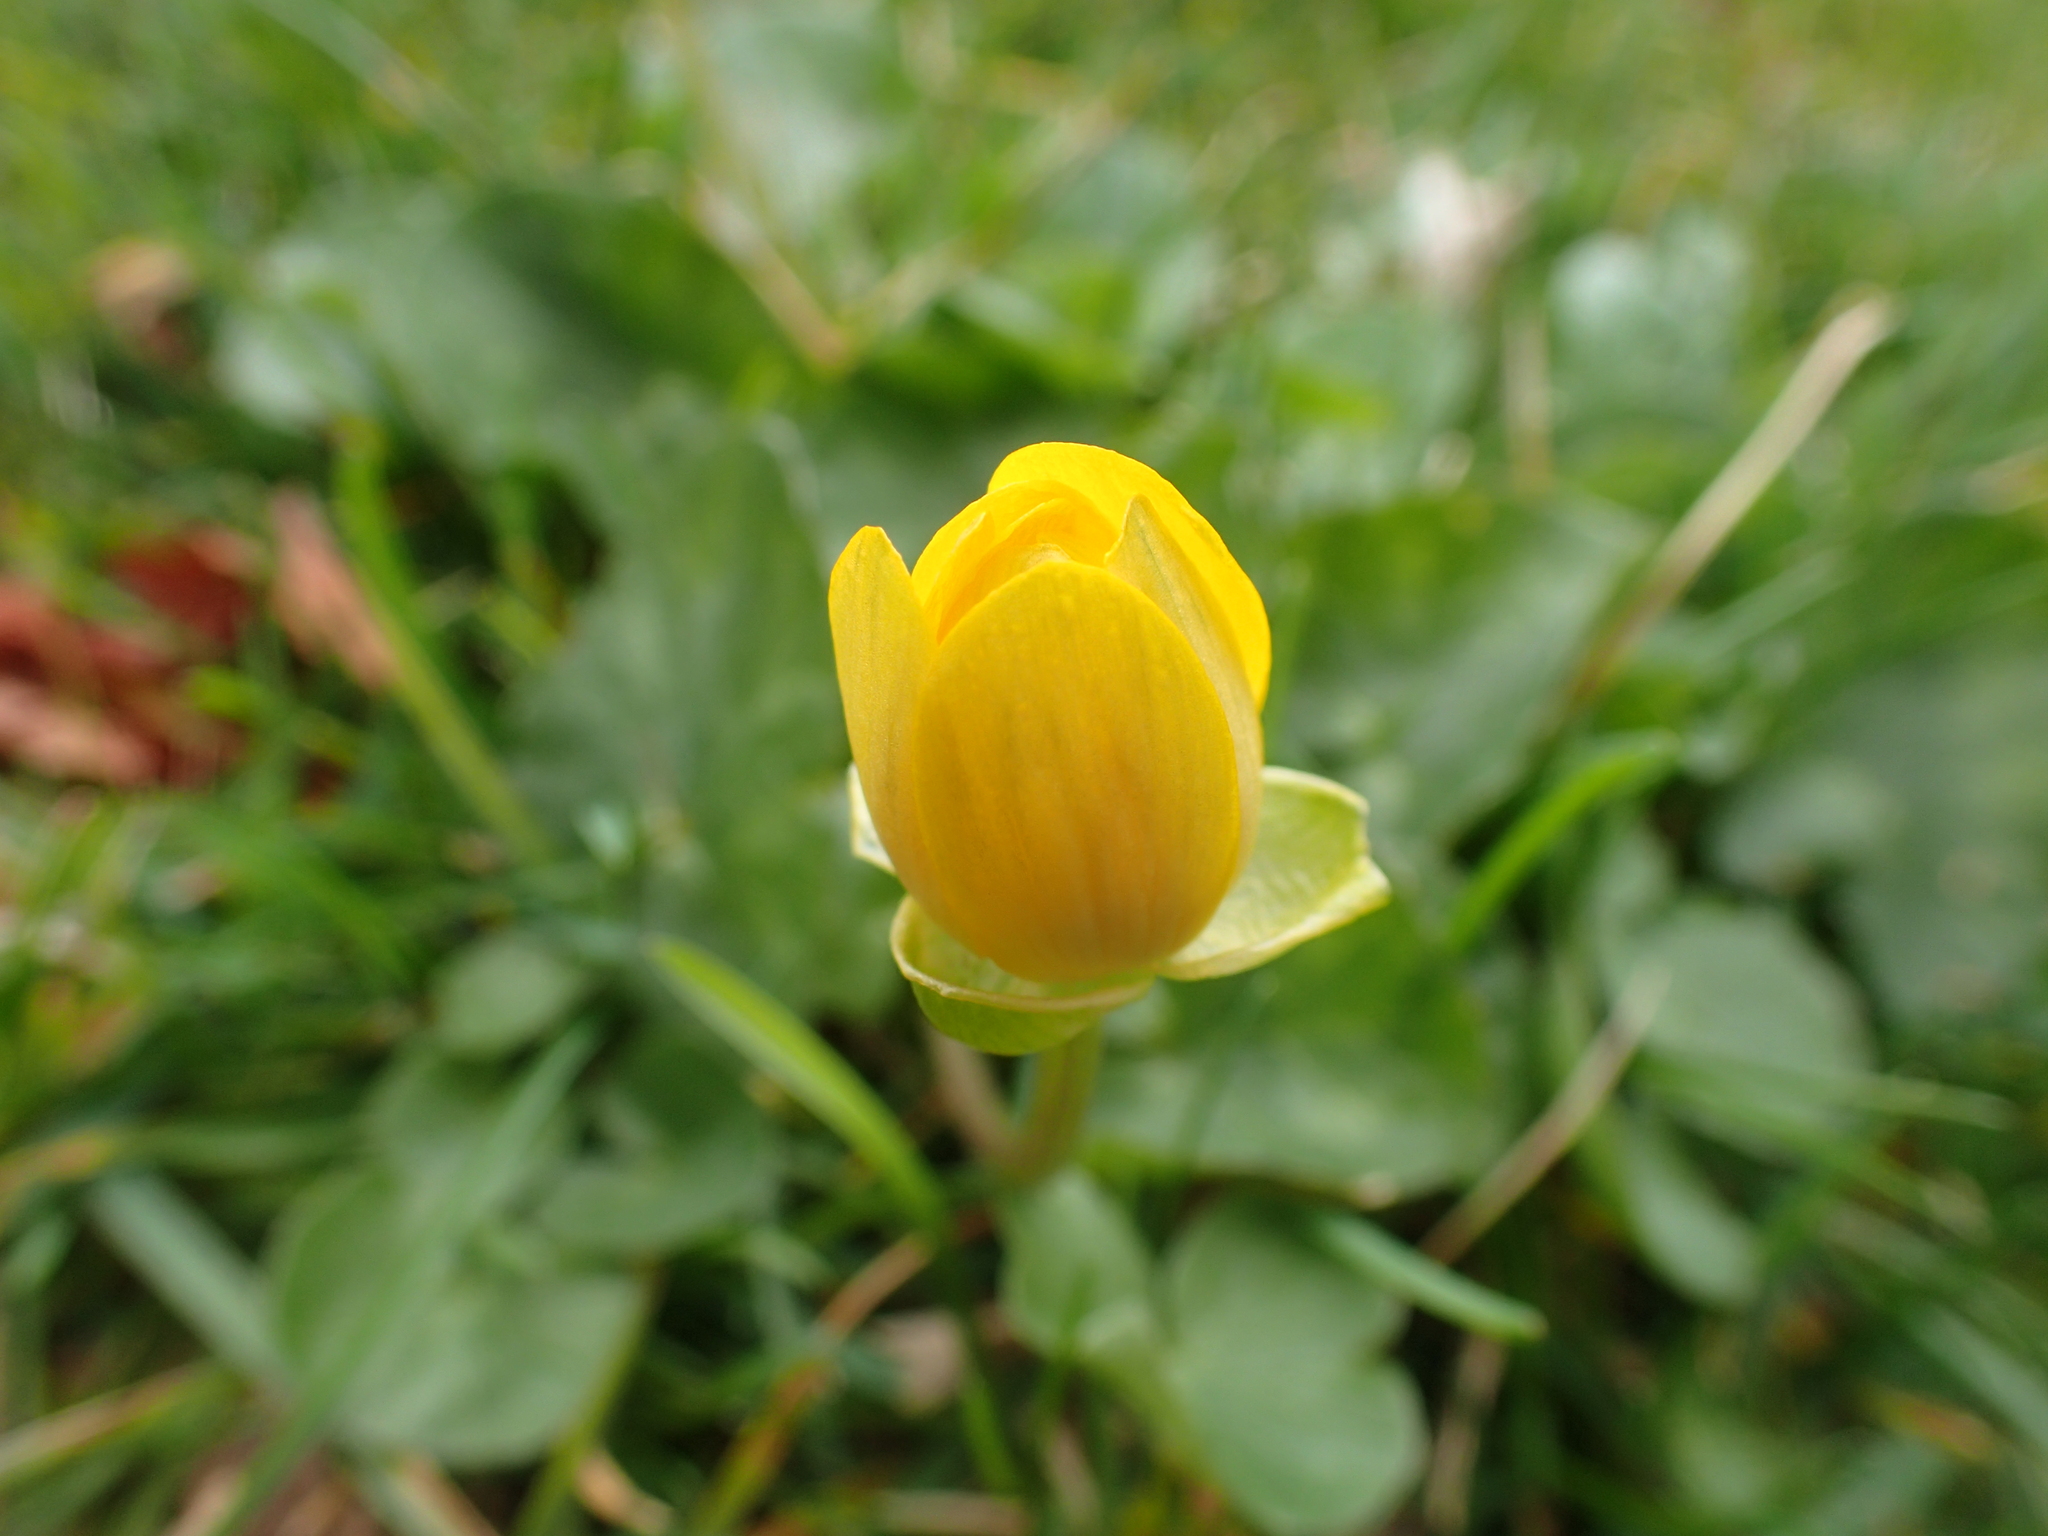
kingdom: Plantae
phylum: Tracheophyta
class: Magnoliopsida
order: Ranunculales
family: Ranunculaceae
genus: Ficaria
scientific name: Ficaria verna
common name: Lesser celandine
